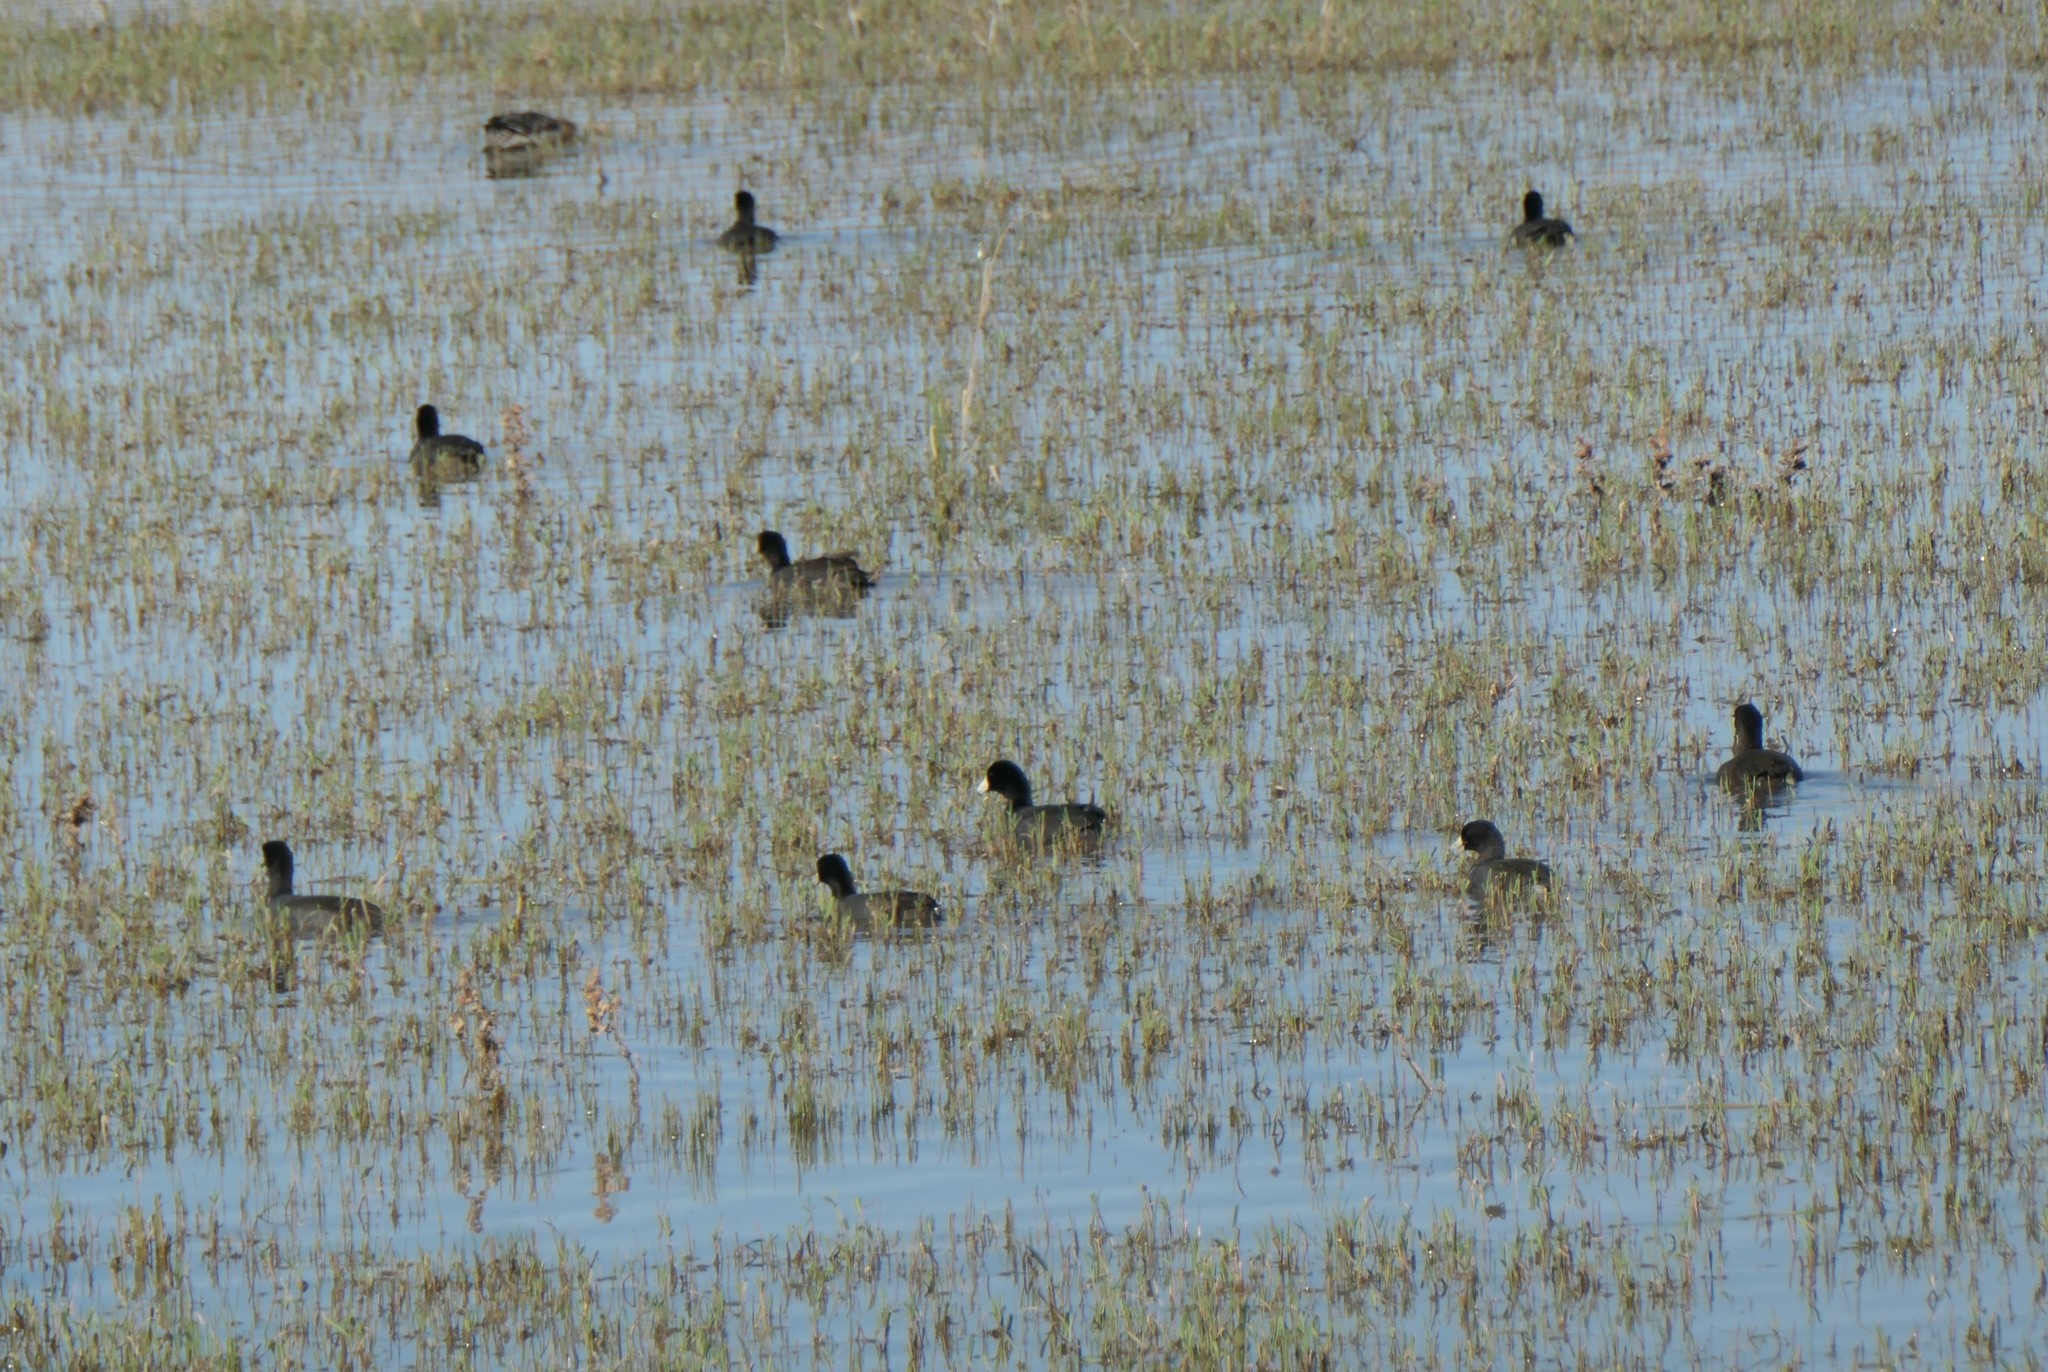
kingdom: Animalia
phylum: Chordata
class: Aves
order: Gruiformes
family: Rallidae
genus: Fulica
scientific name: Fulica americana
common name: American coot
